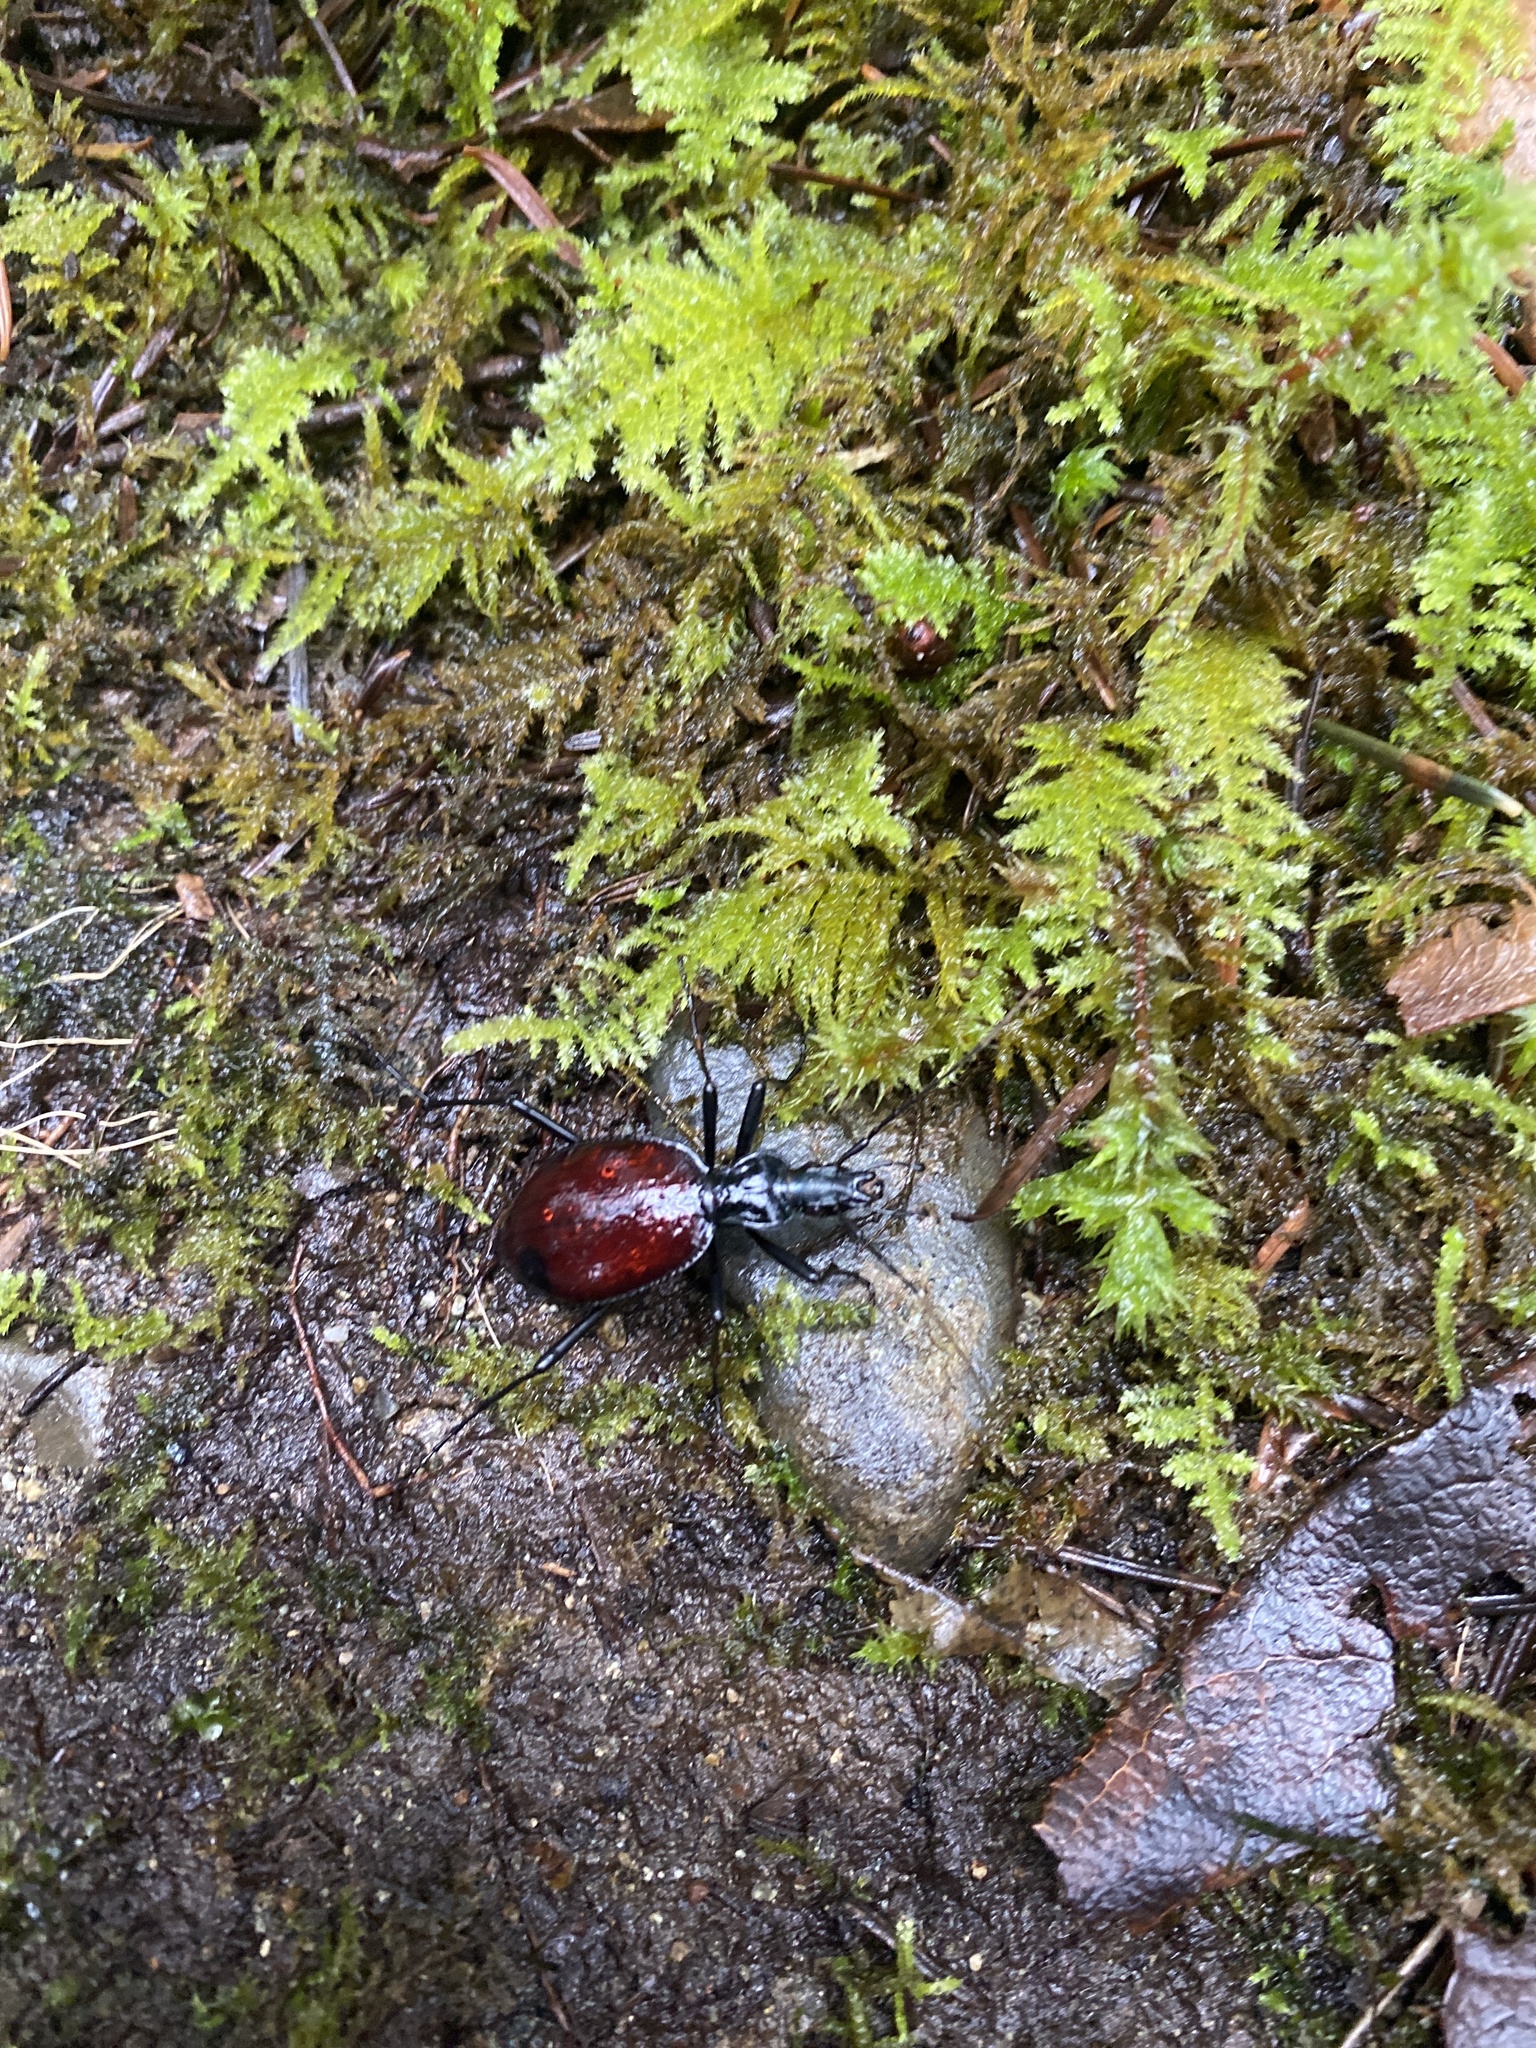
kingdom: Animalia
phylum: Arthropoda
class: Insecta
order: Coleoptera
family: Carabidae
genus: Scaphinotus
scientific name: Scaphinotus angusticollis
